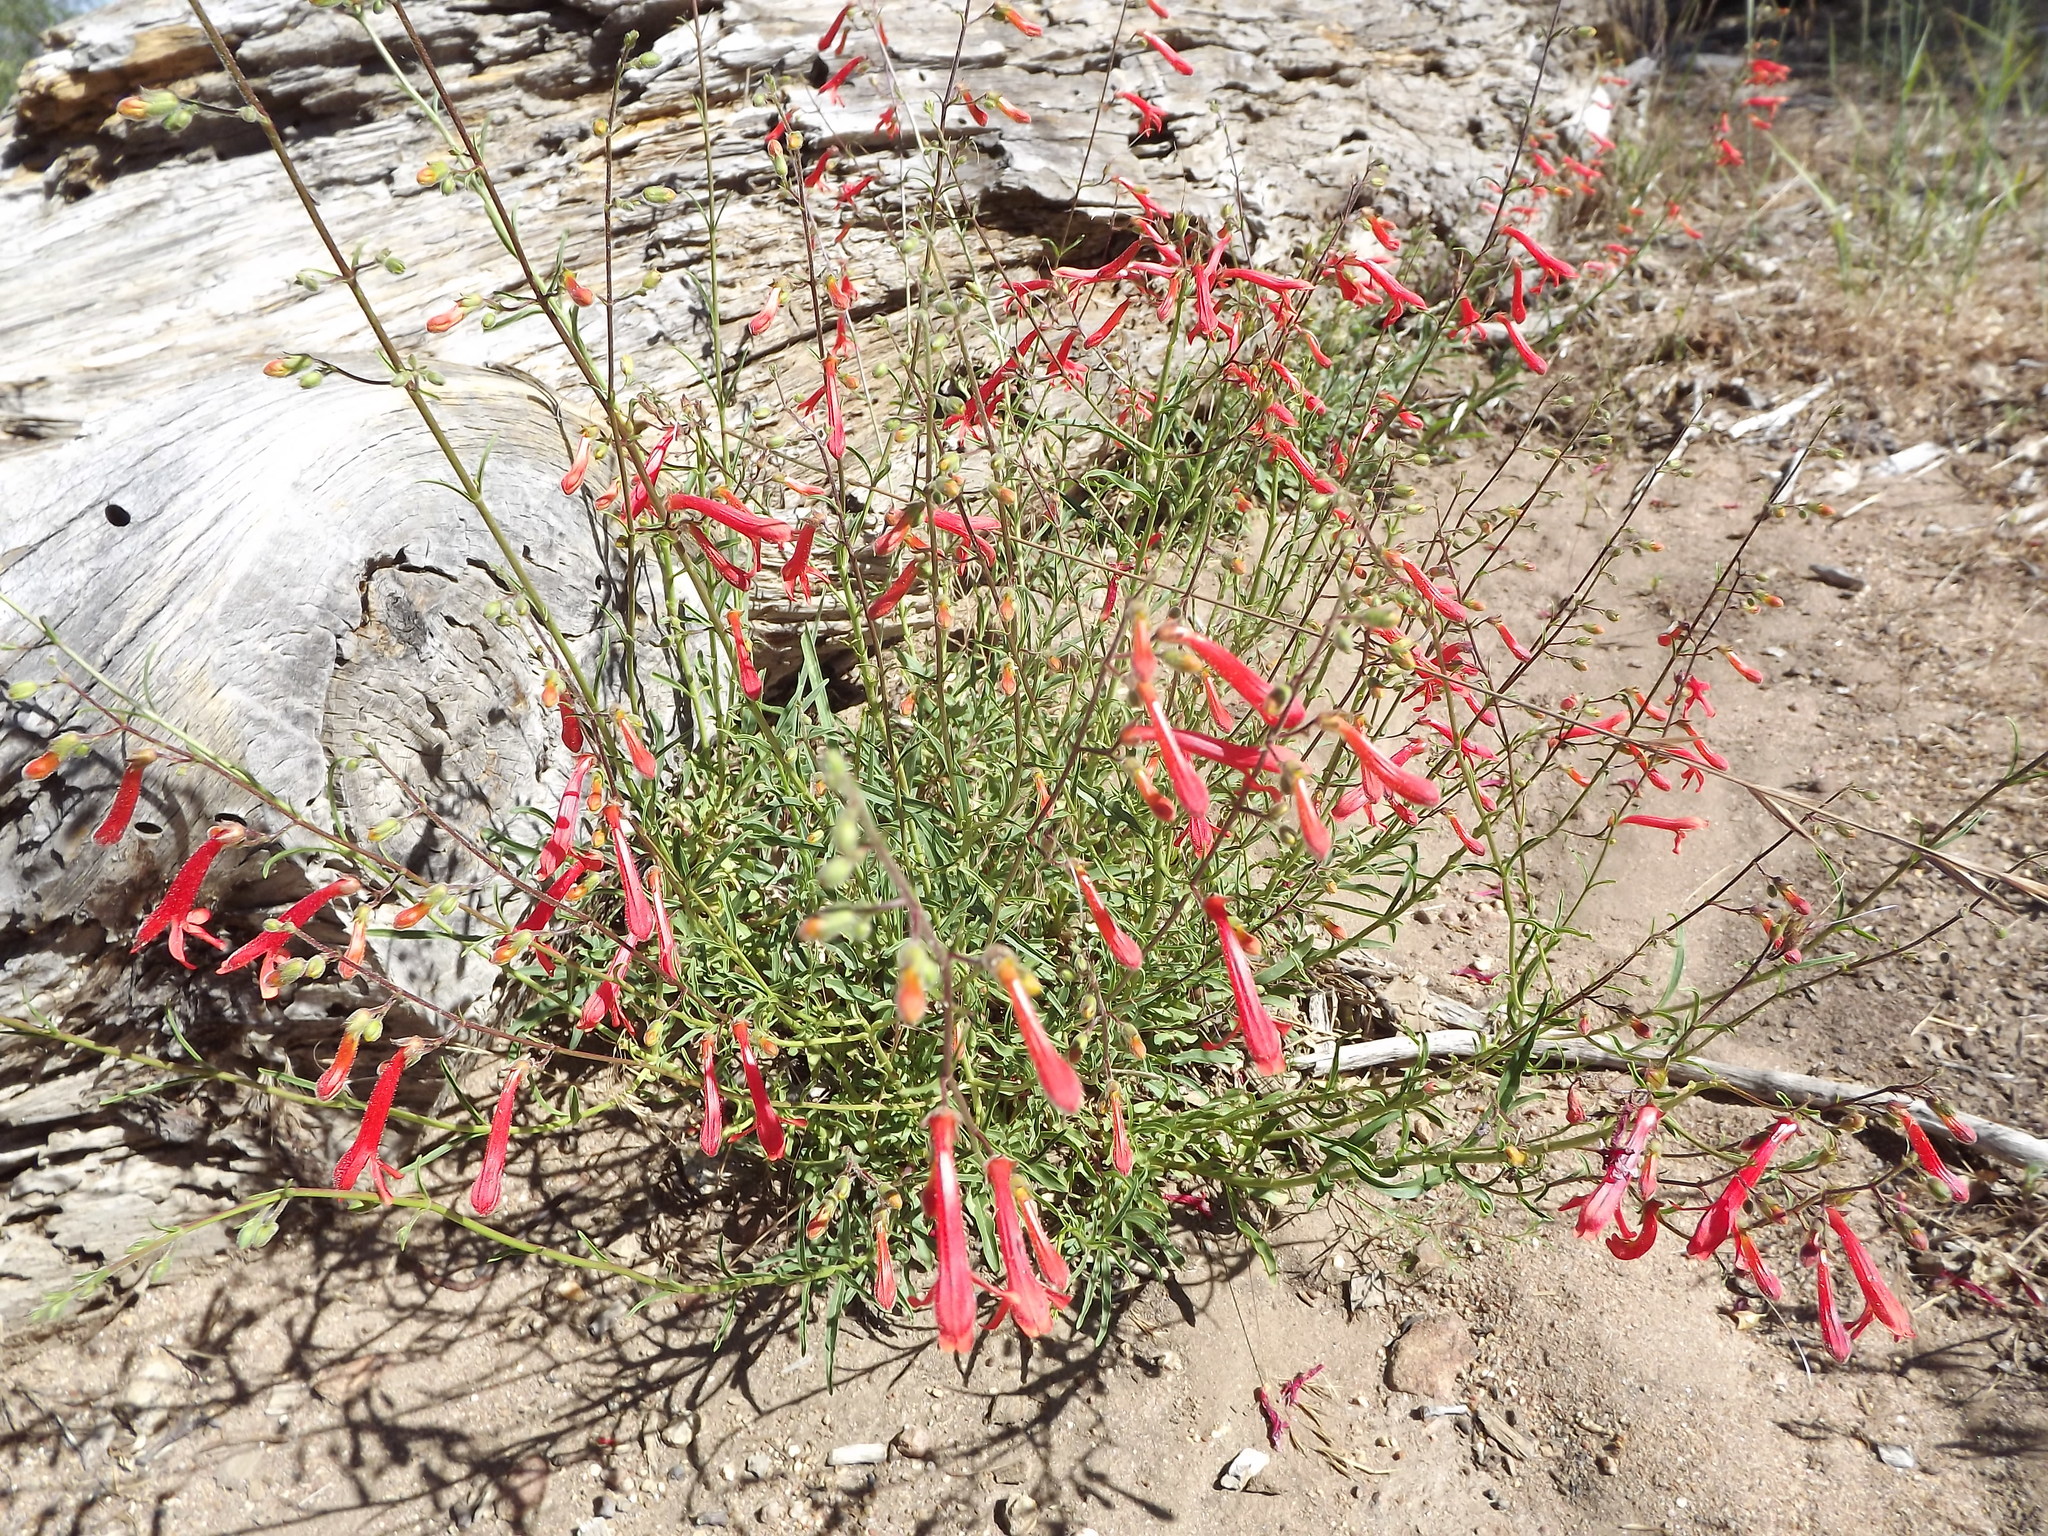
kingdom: Plantae
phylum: Tracheophyta
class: Magnoliopsida
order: Lamiales
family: Plantaginaceae
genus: Penstemon
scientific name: Penstemon rostriflorus
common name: Bridges's penstemon
